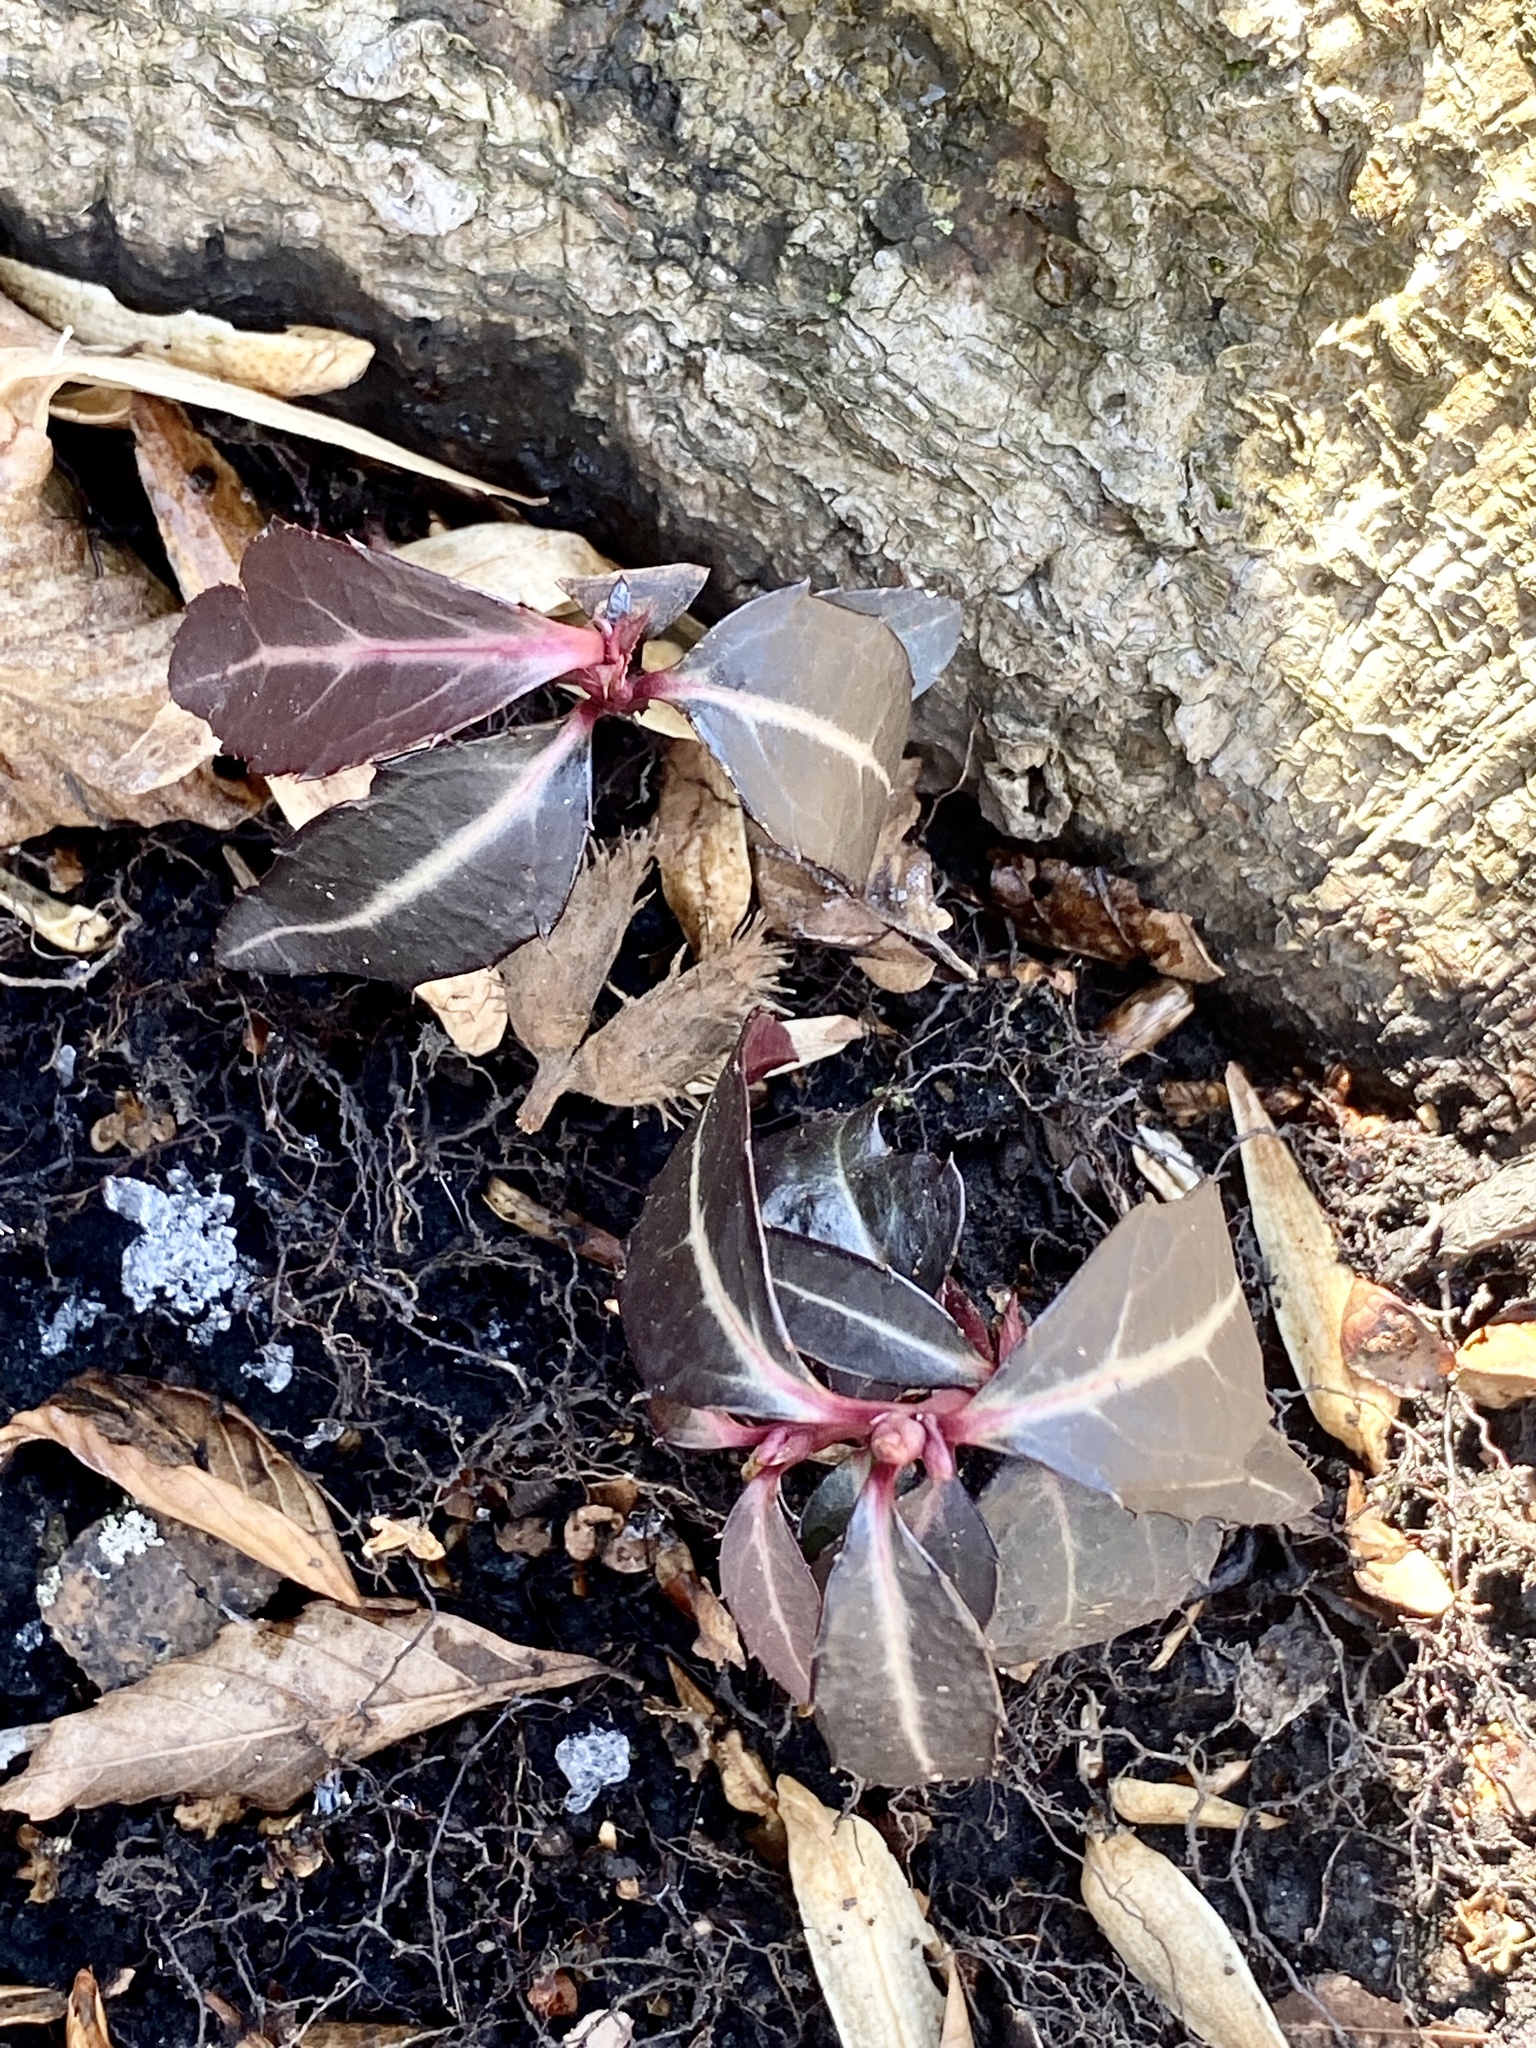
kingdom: Plantae
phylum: Tracheophyta
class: Magnoliopsida
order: Ericales
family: Ericaceae
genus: Chimaphila
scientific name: Chimaphila maculata
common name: Spotted pipsissewa
